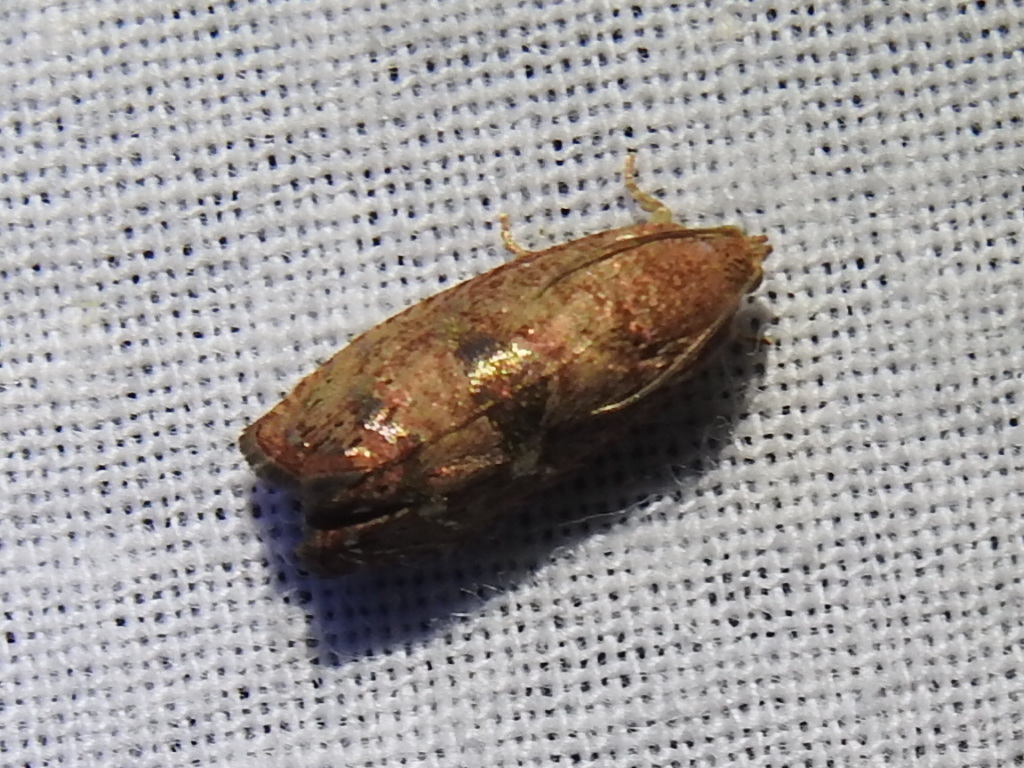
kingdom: Animalia
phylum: Arthropoda
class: Insecta
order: Lepidoptera
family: Tortricidae
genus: Cydia
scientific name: Cydia latiferreana
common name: Filbertworm moth
